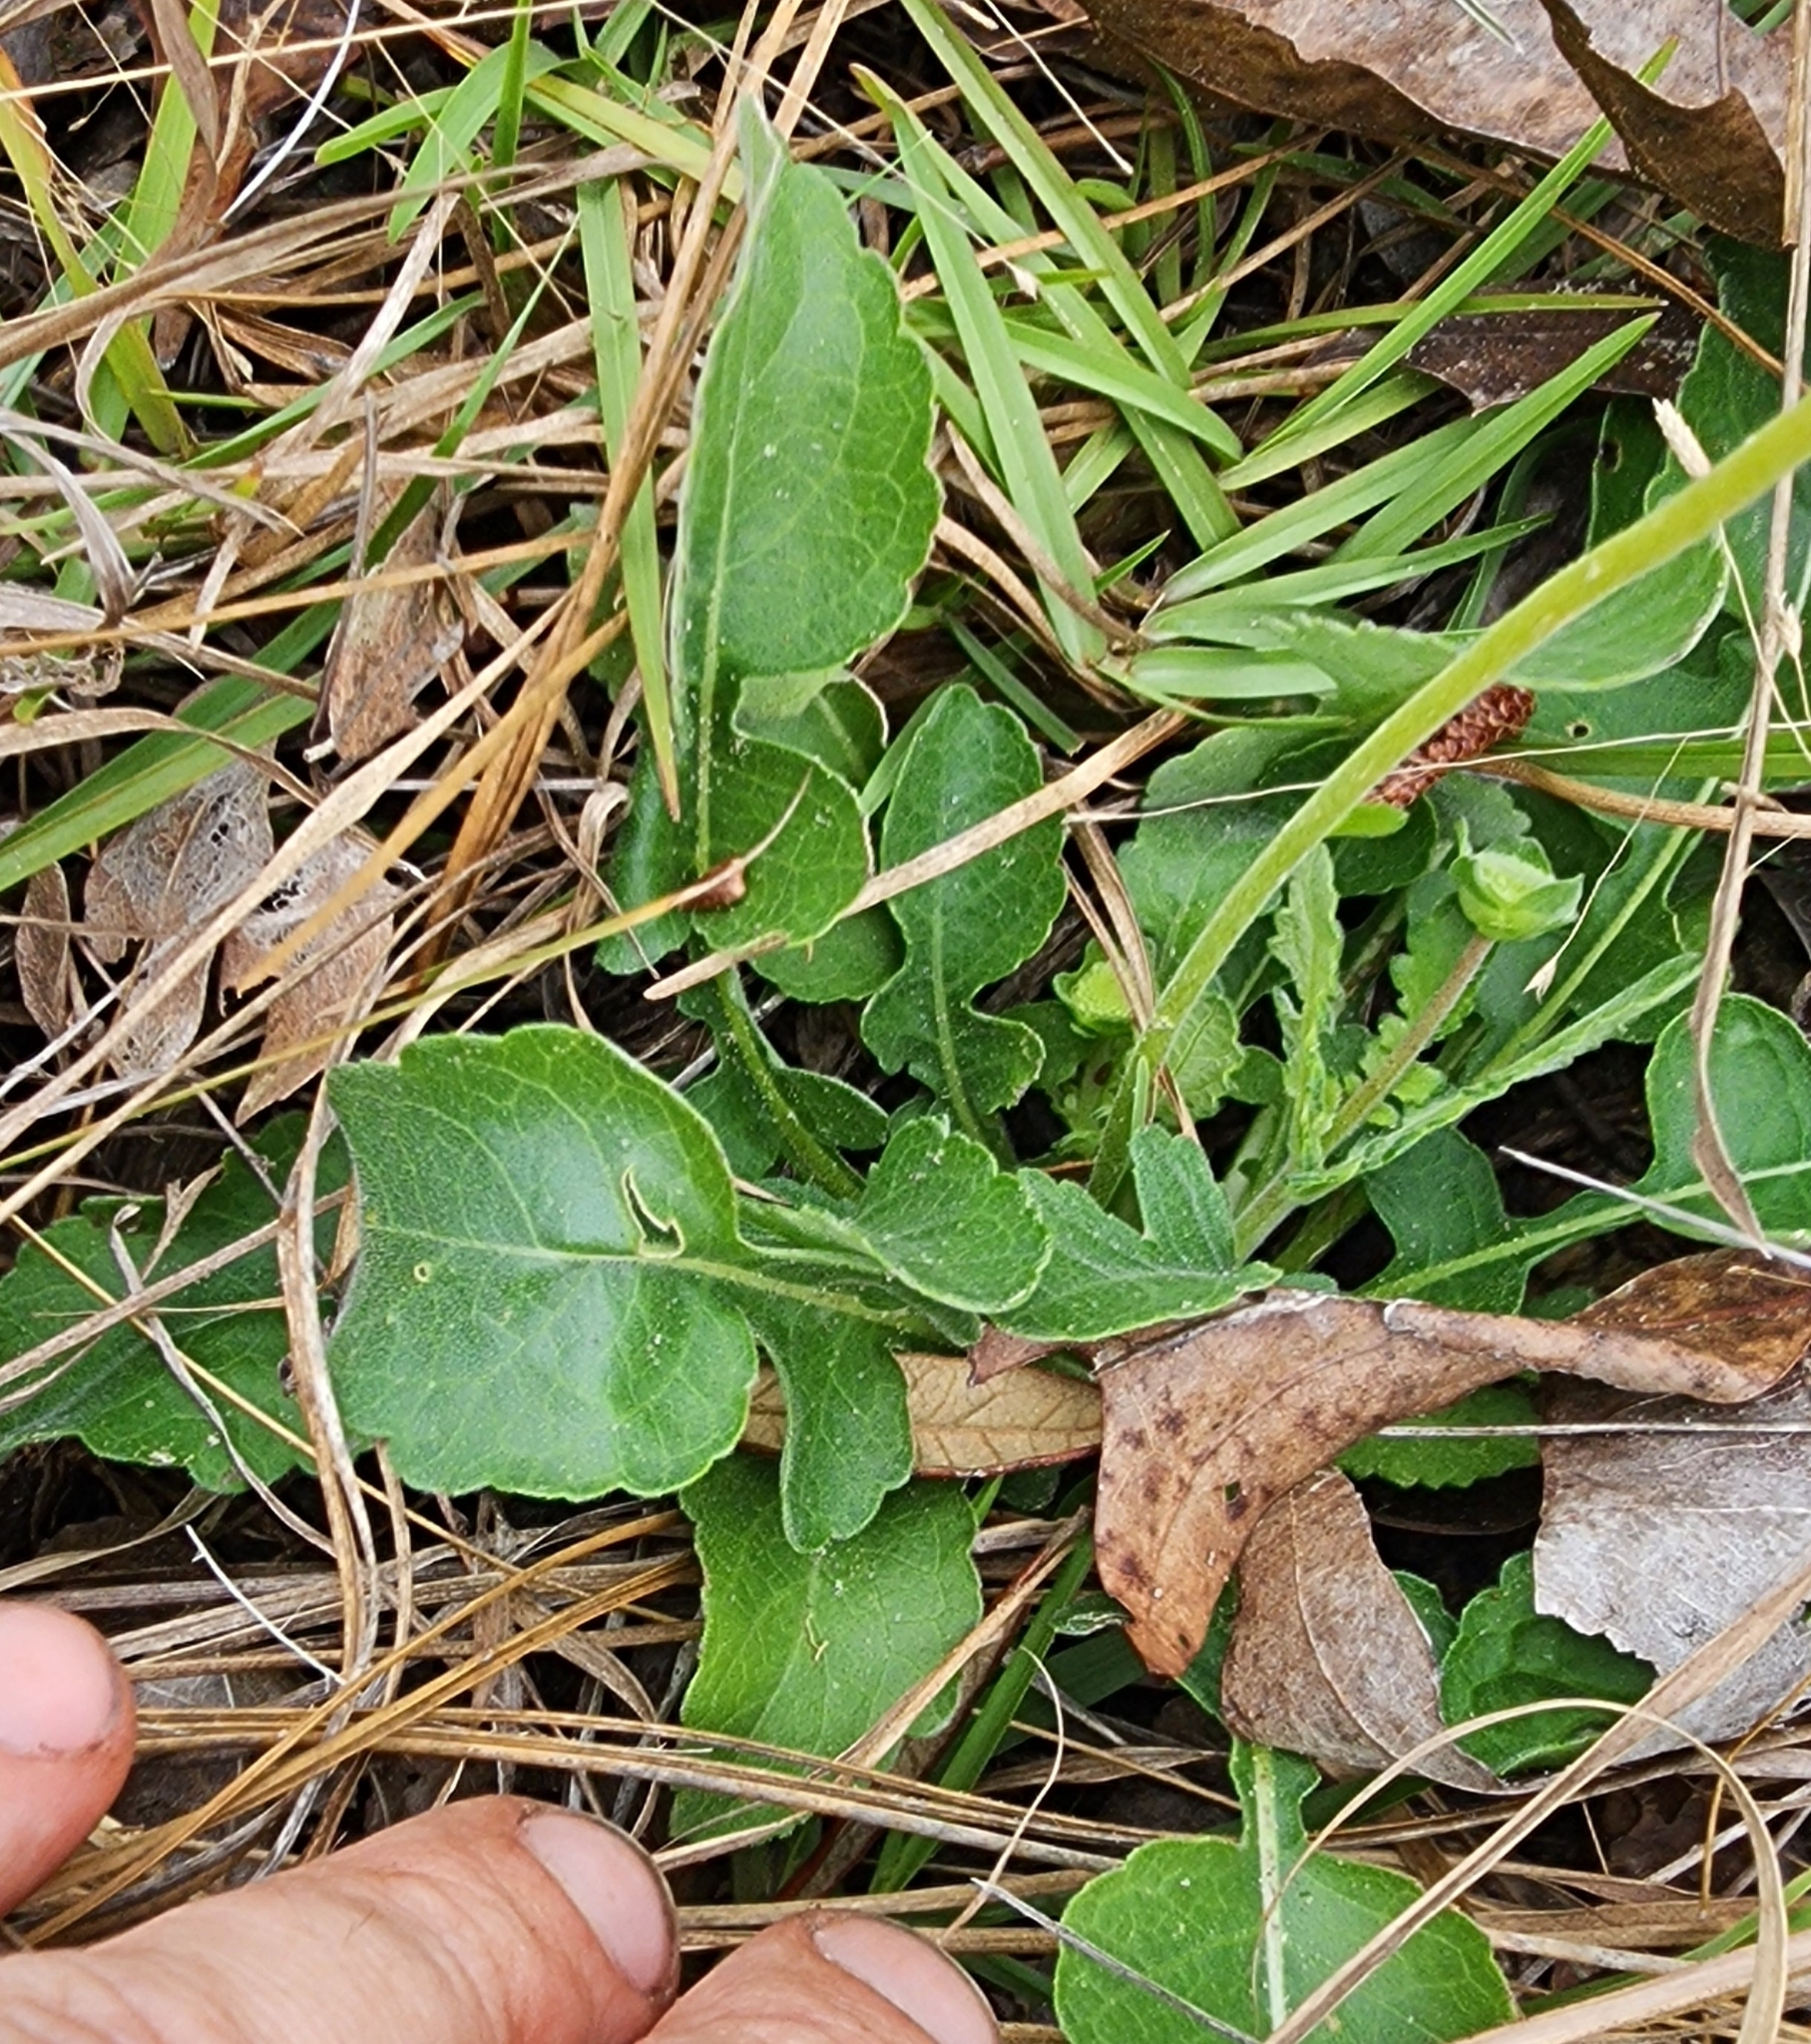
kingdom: Plantae
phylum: Tracheophyta
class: Magnoliopsida
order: Asterales
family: Asteraceae
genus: Berlandiera
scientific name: Berlandiera subacaulis
